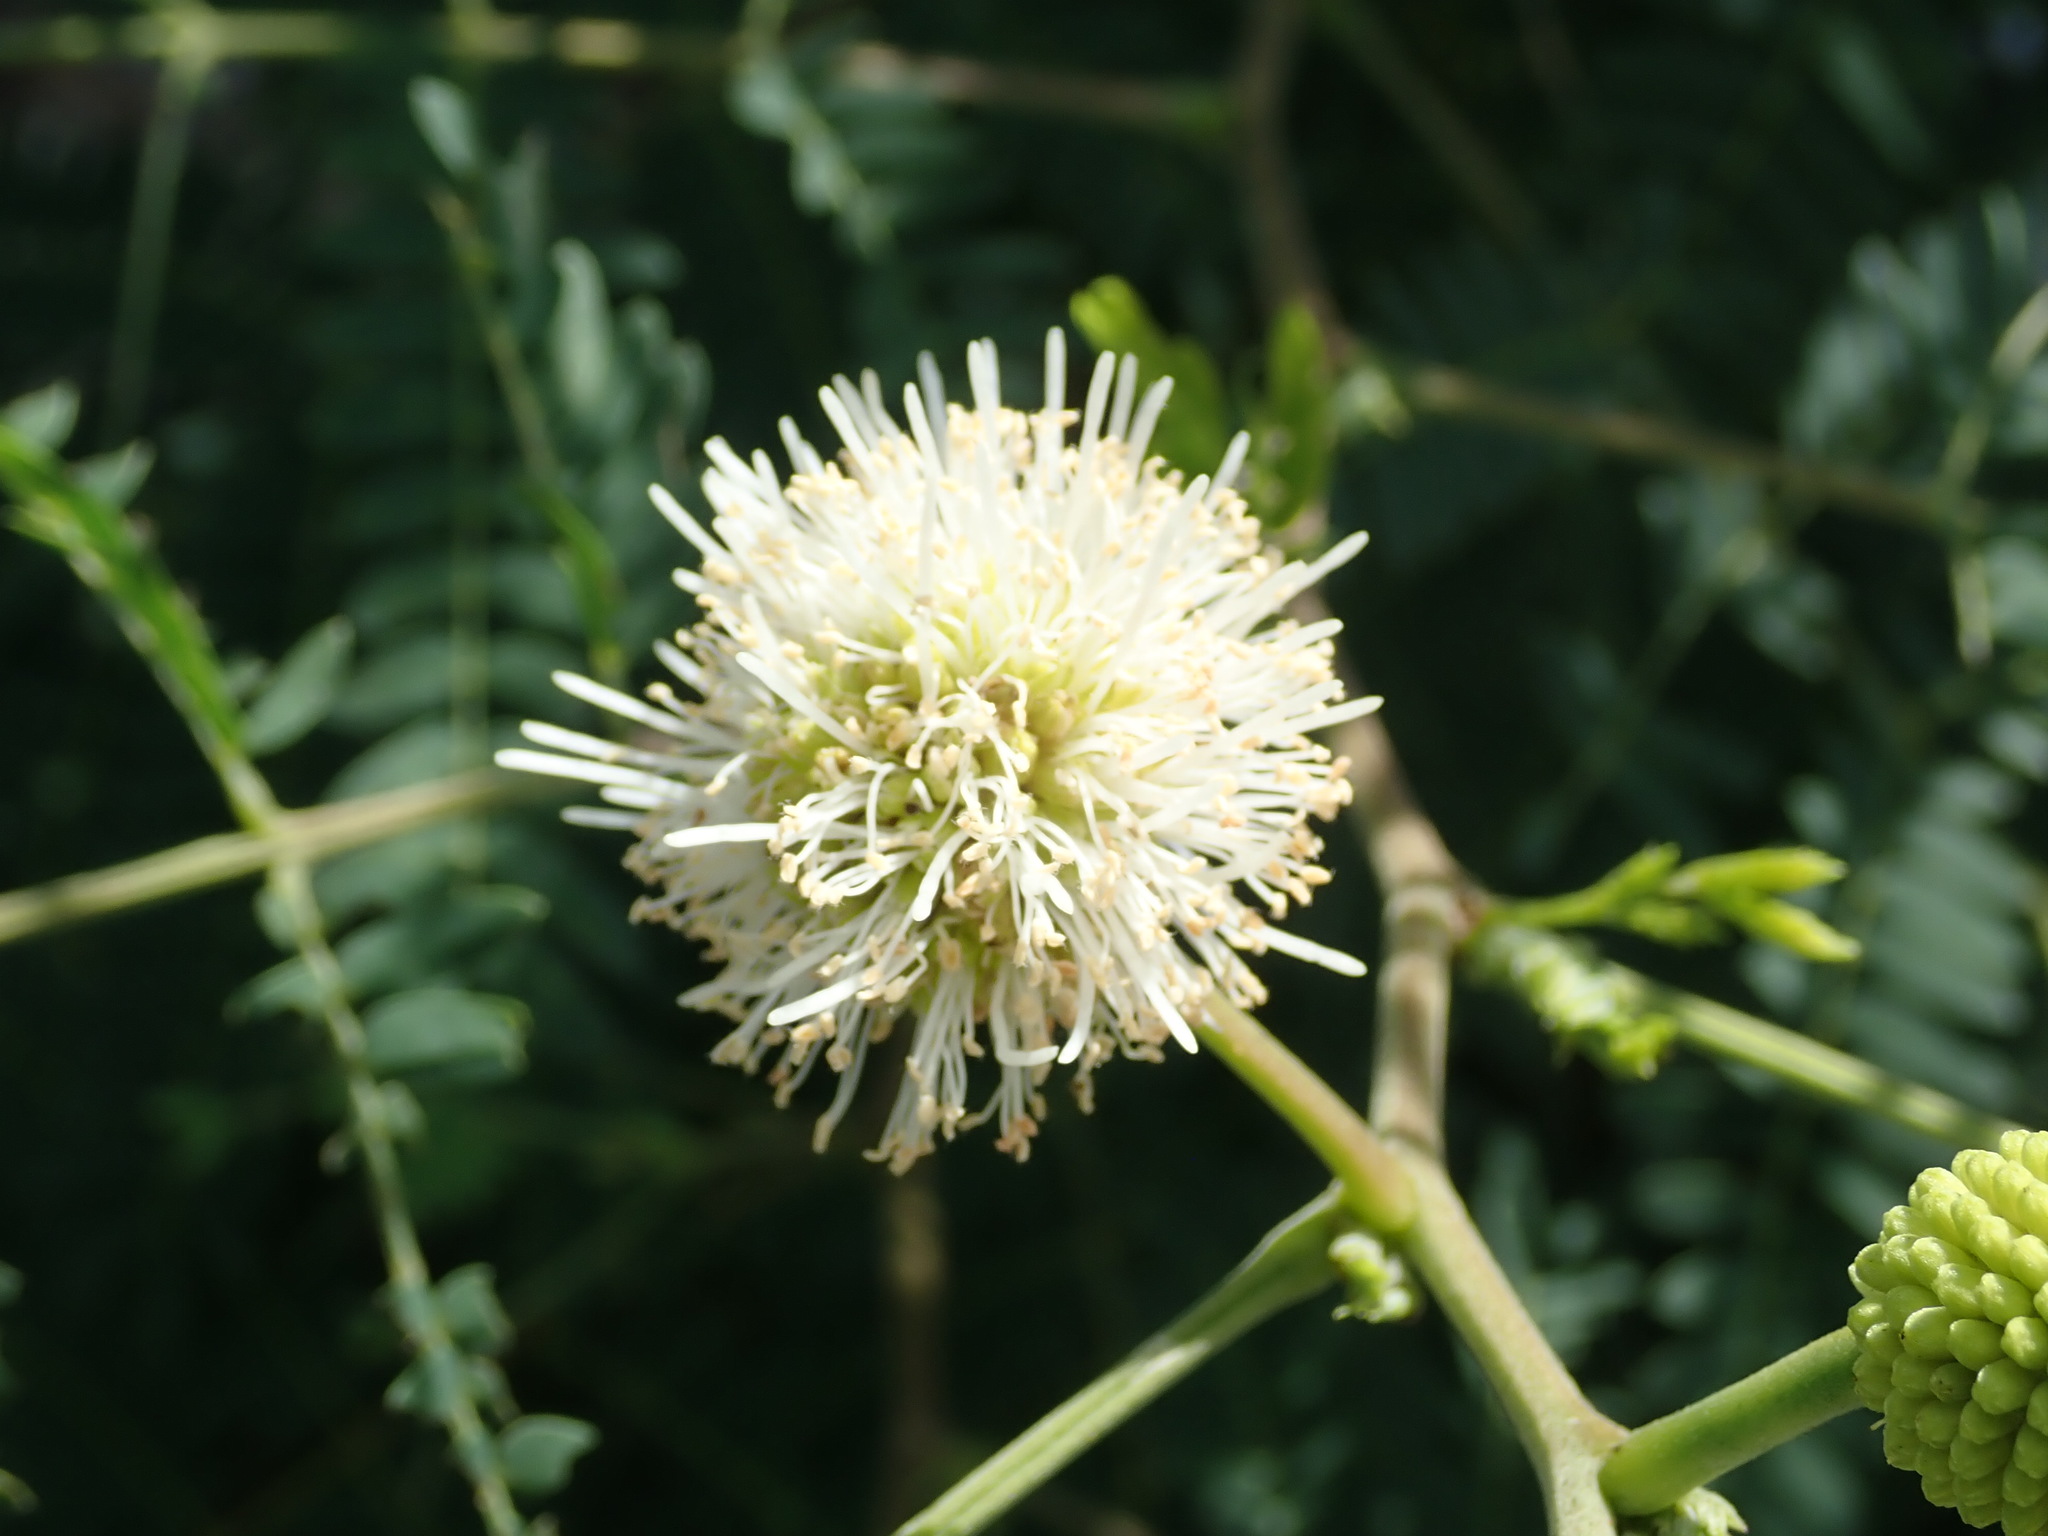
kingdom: Plantae
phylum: Tracheophyta
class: Magnoliopsida
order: Fabales
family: Fabaceae
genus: Leucaena
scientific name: Leucaena leucocephala
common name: White leadtree
